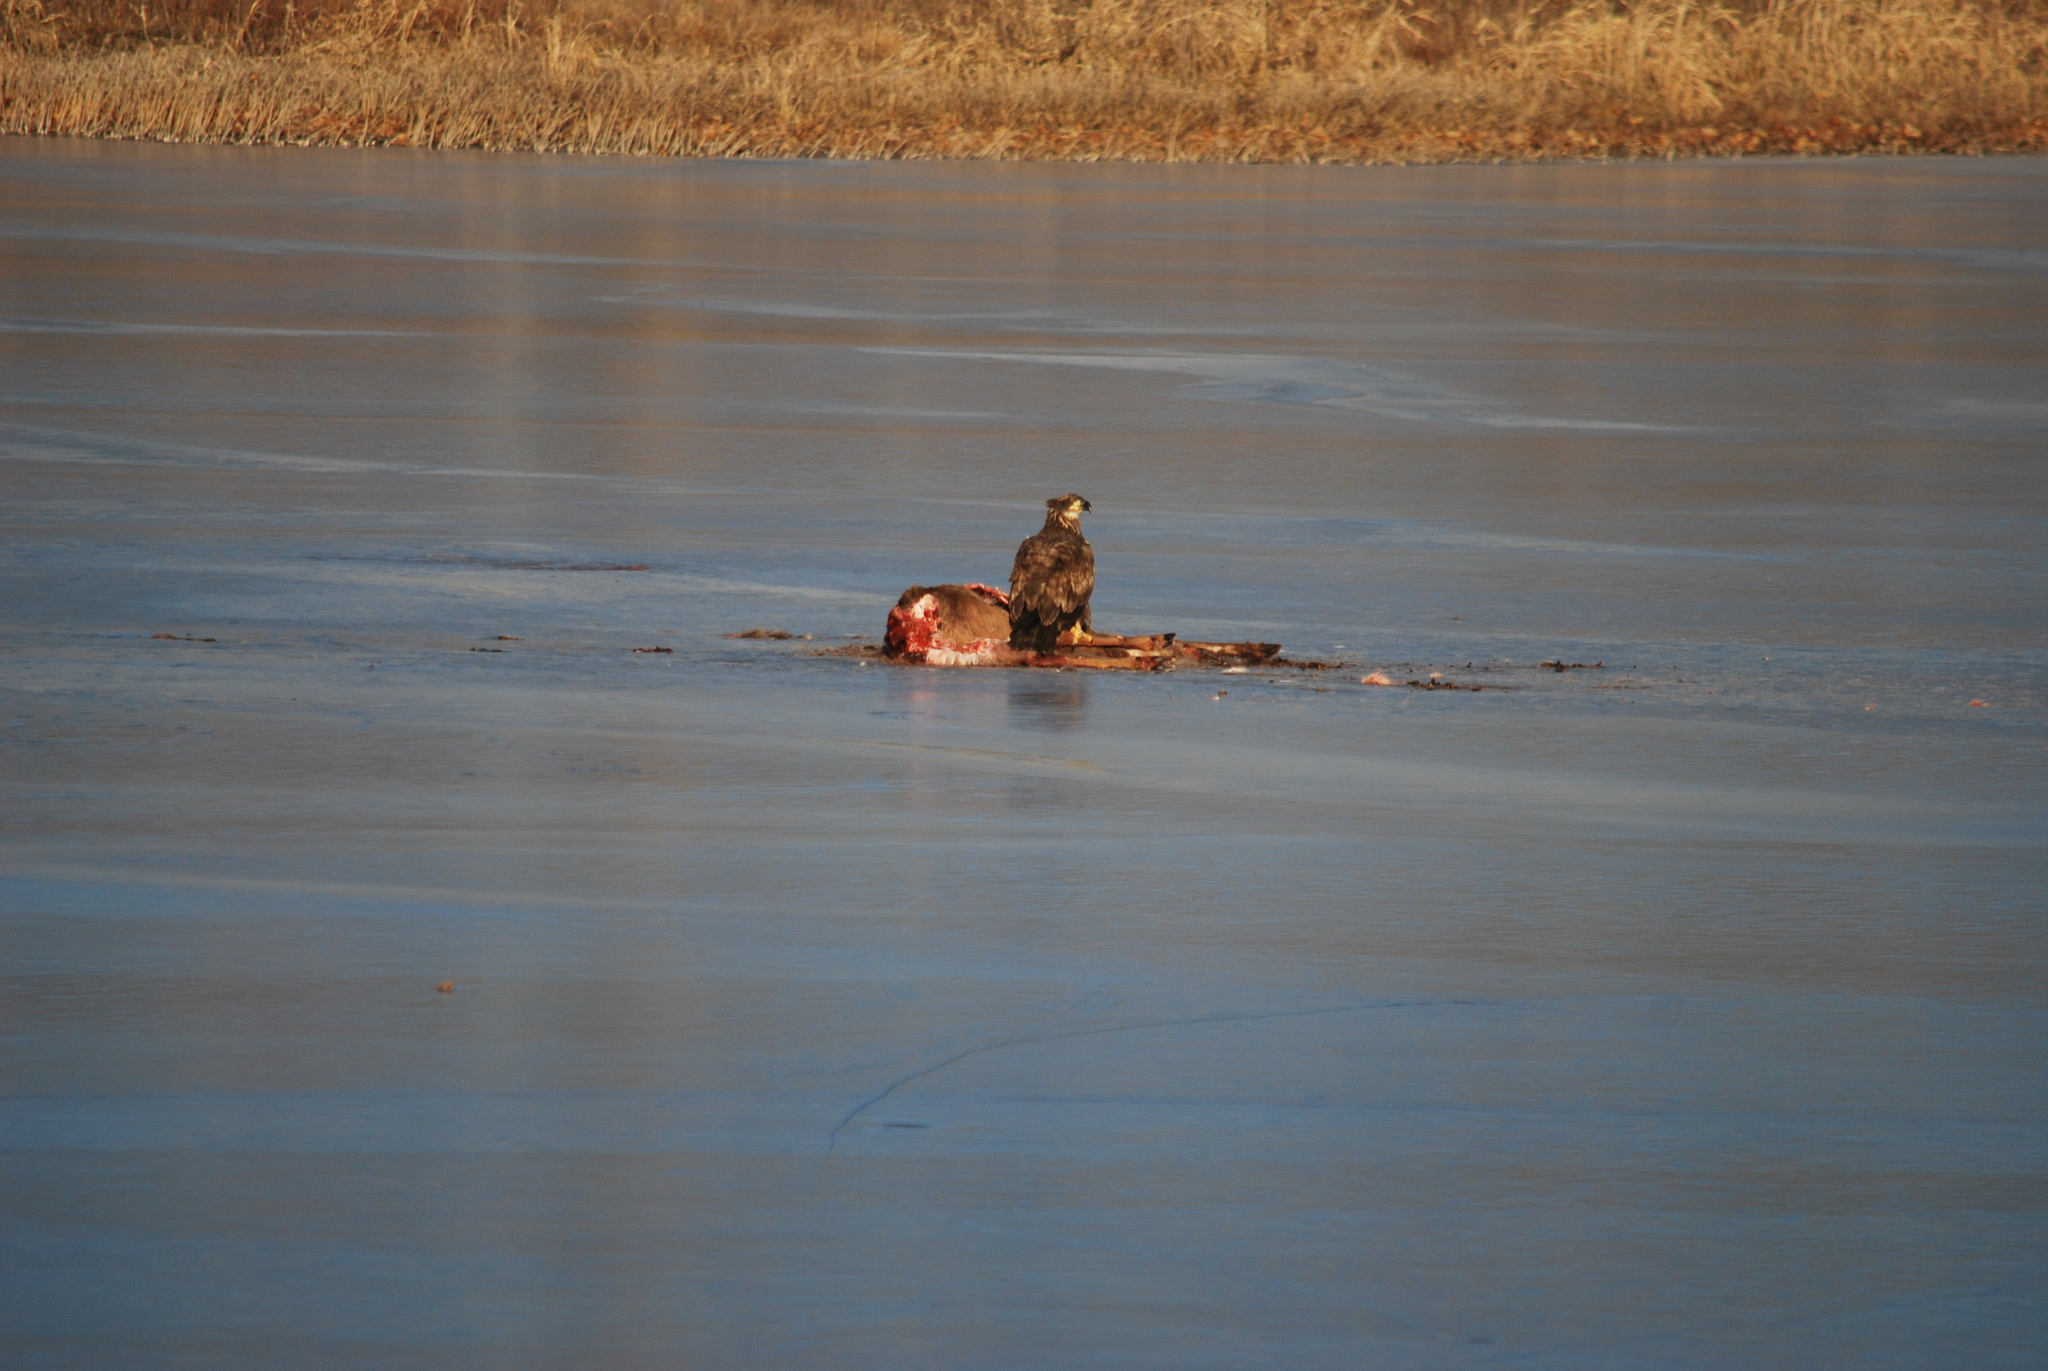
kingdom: Animalia
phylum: Chordata
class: Aves
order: Accipitriformes
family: Accipitridae
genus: Haliaeetus
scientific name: Haliaeetus leucocephalus
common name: Bald eagle
